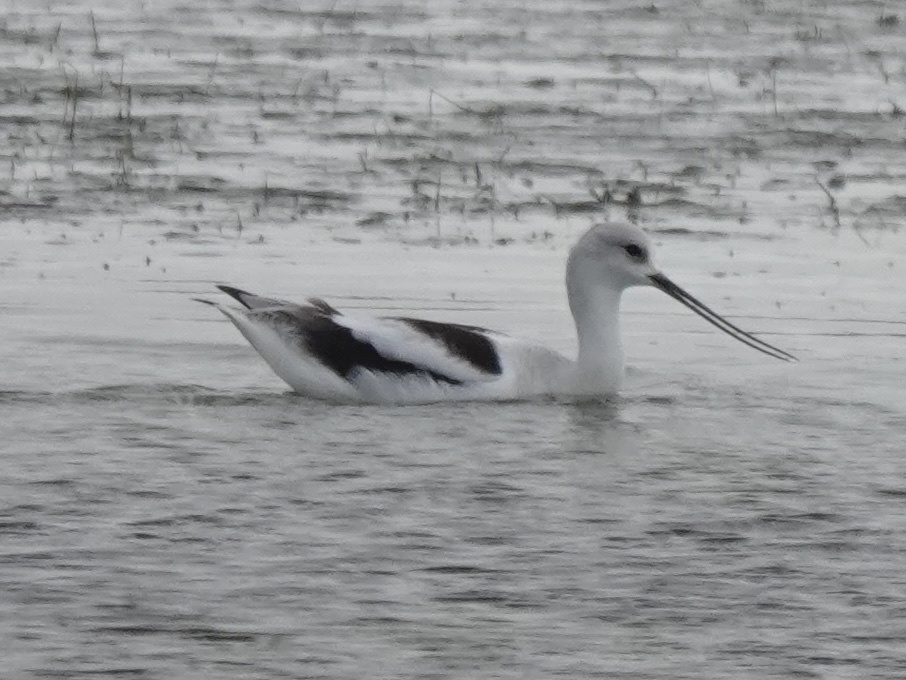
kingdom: Animalia
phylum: Chordata
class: Aves
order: Charadriiformes
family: Recurvirostridae
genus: Recurvirostra
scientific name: Recurvirostra americana
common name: American avocet
